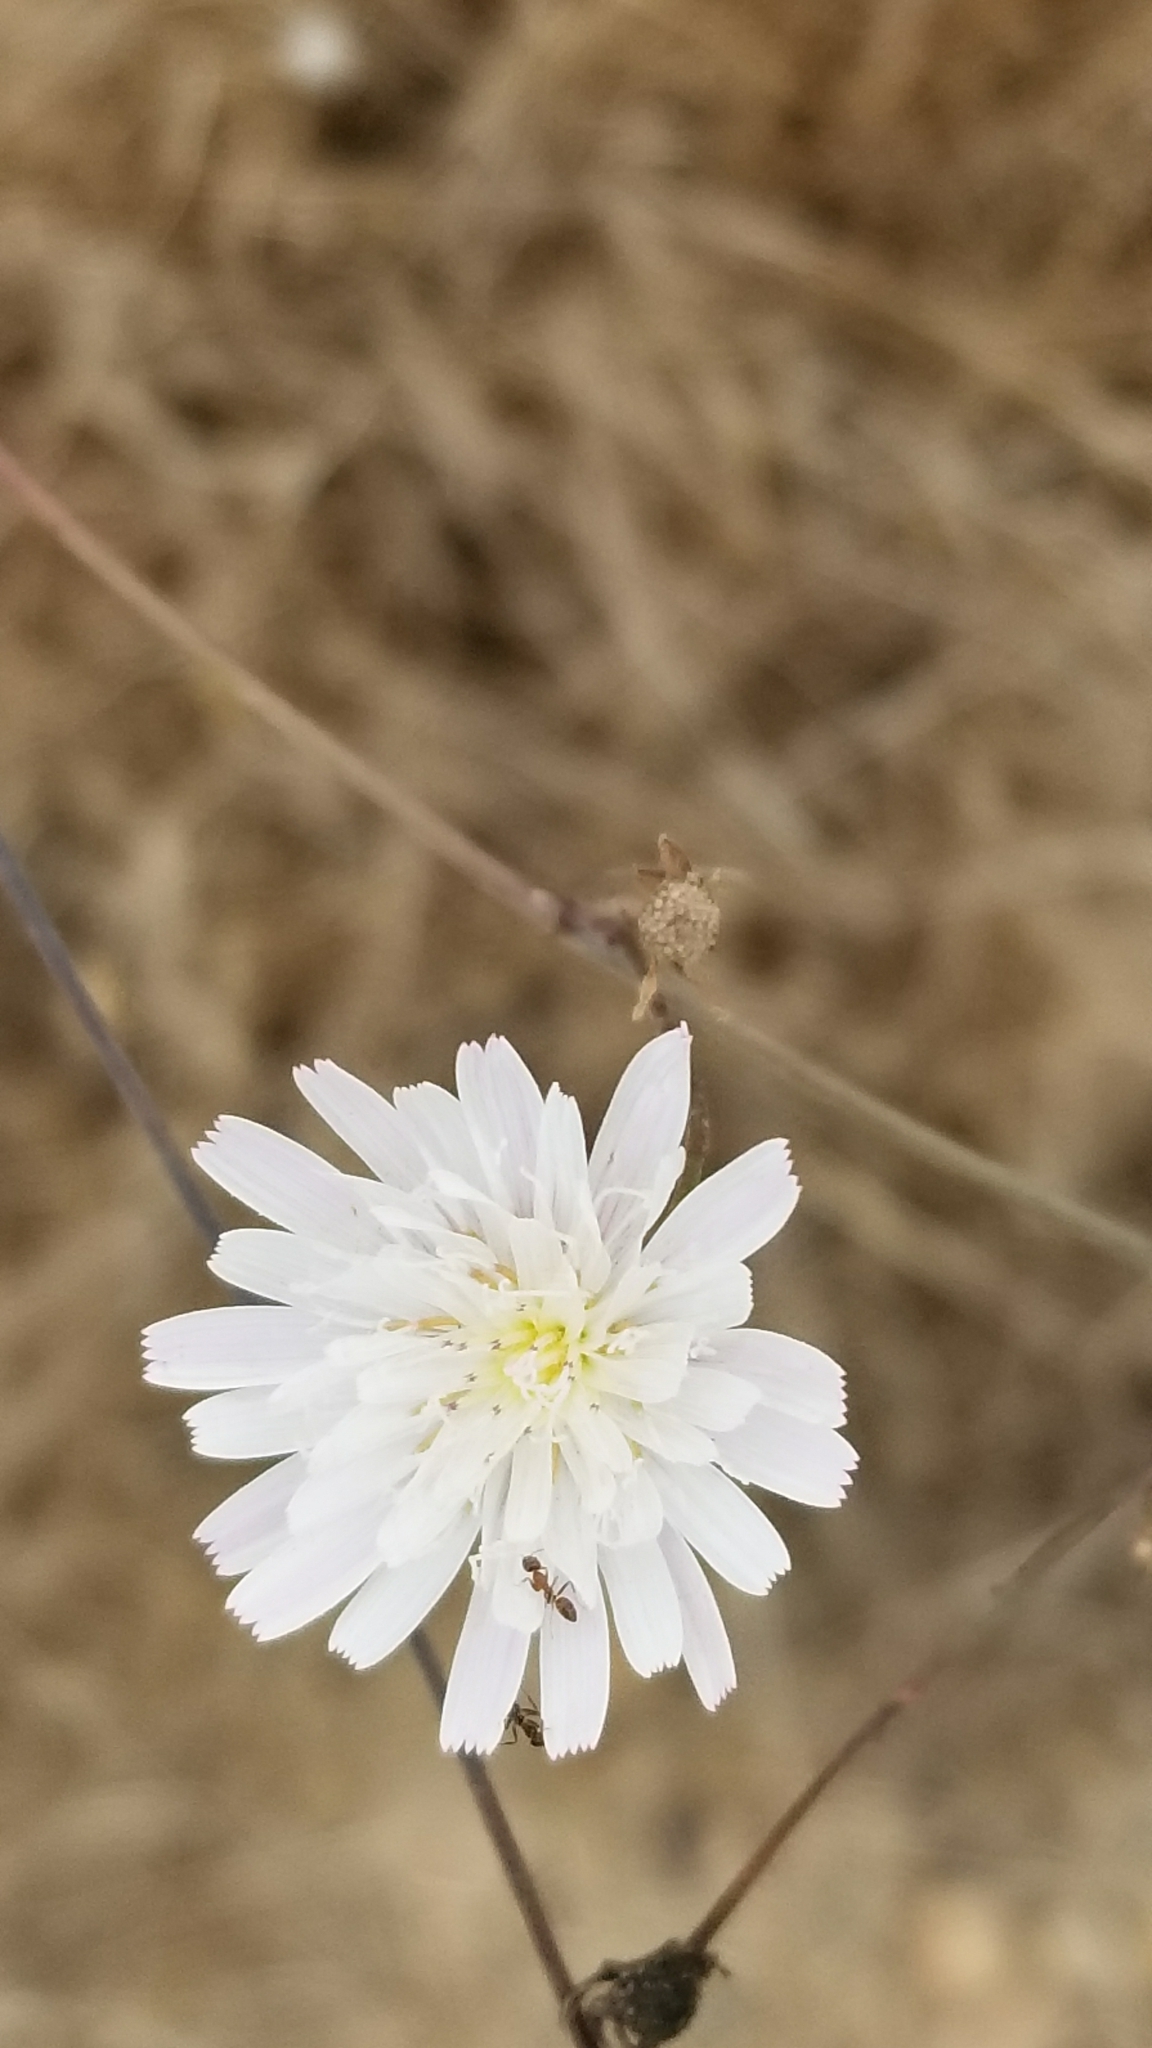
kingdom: Plantae
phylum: Tracheophyta
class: Magnoliopsida
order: Asterales
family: Asteraceae
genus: Malacothrix
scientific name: Malacothrix saxatilis
